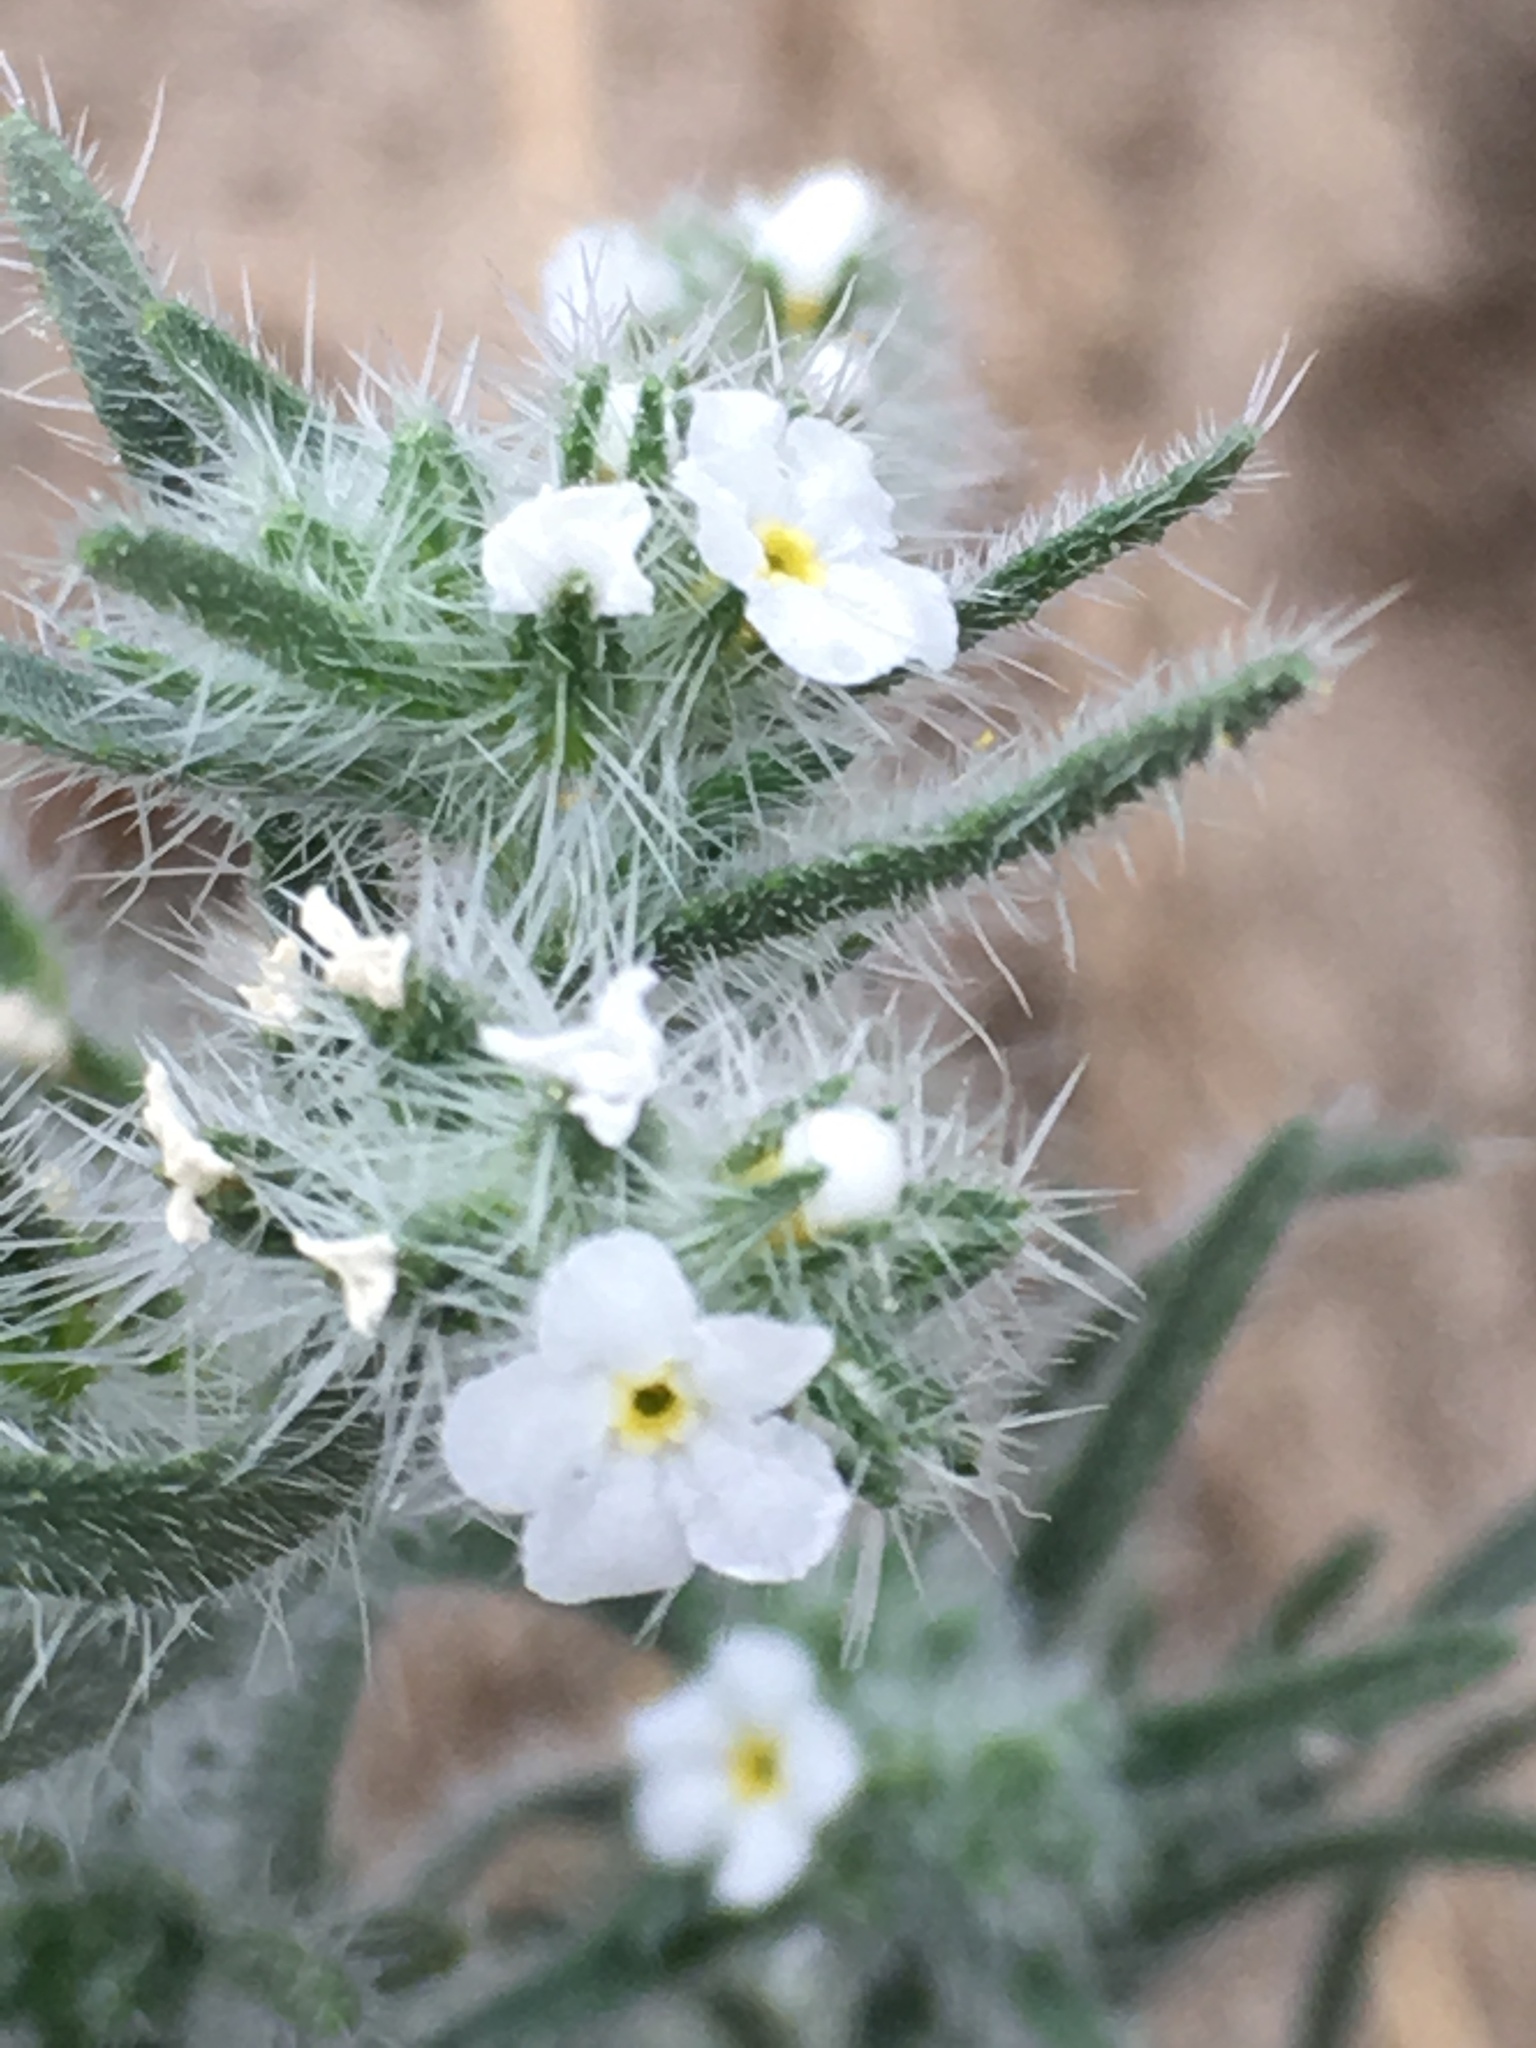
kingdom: Plantae
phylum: Tracheophyta
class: Magnoliopsida
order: Boraginales
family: Boraginaceae
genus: Johnstonella
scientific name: Johnstonella angustifolia
